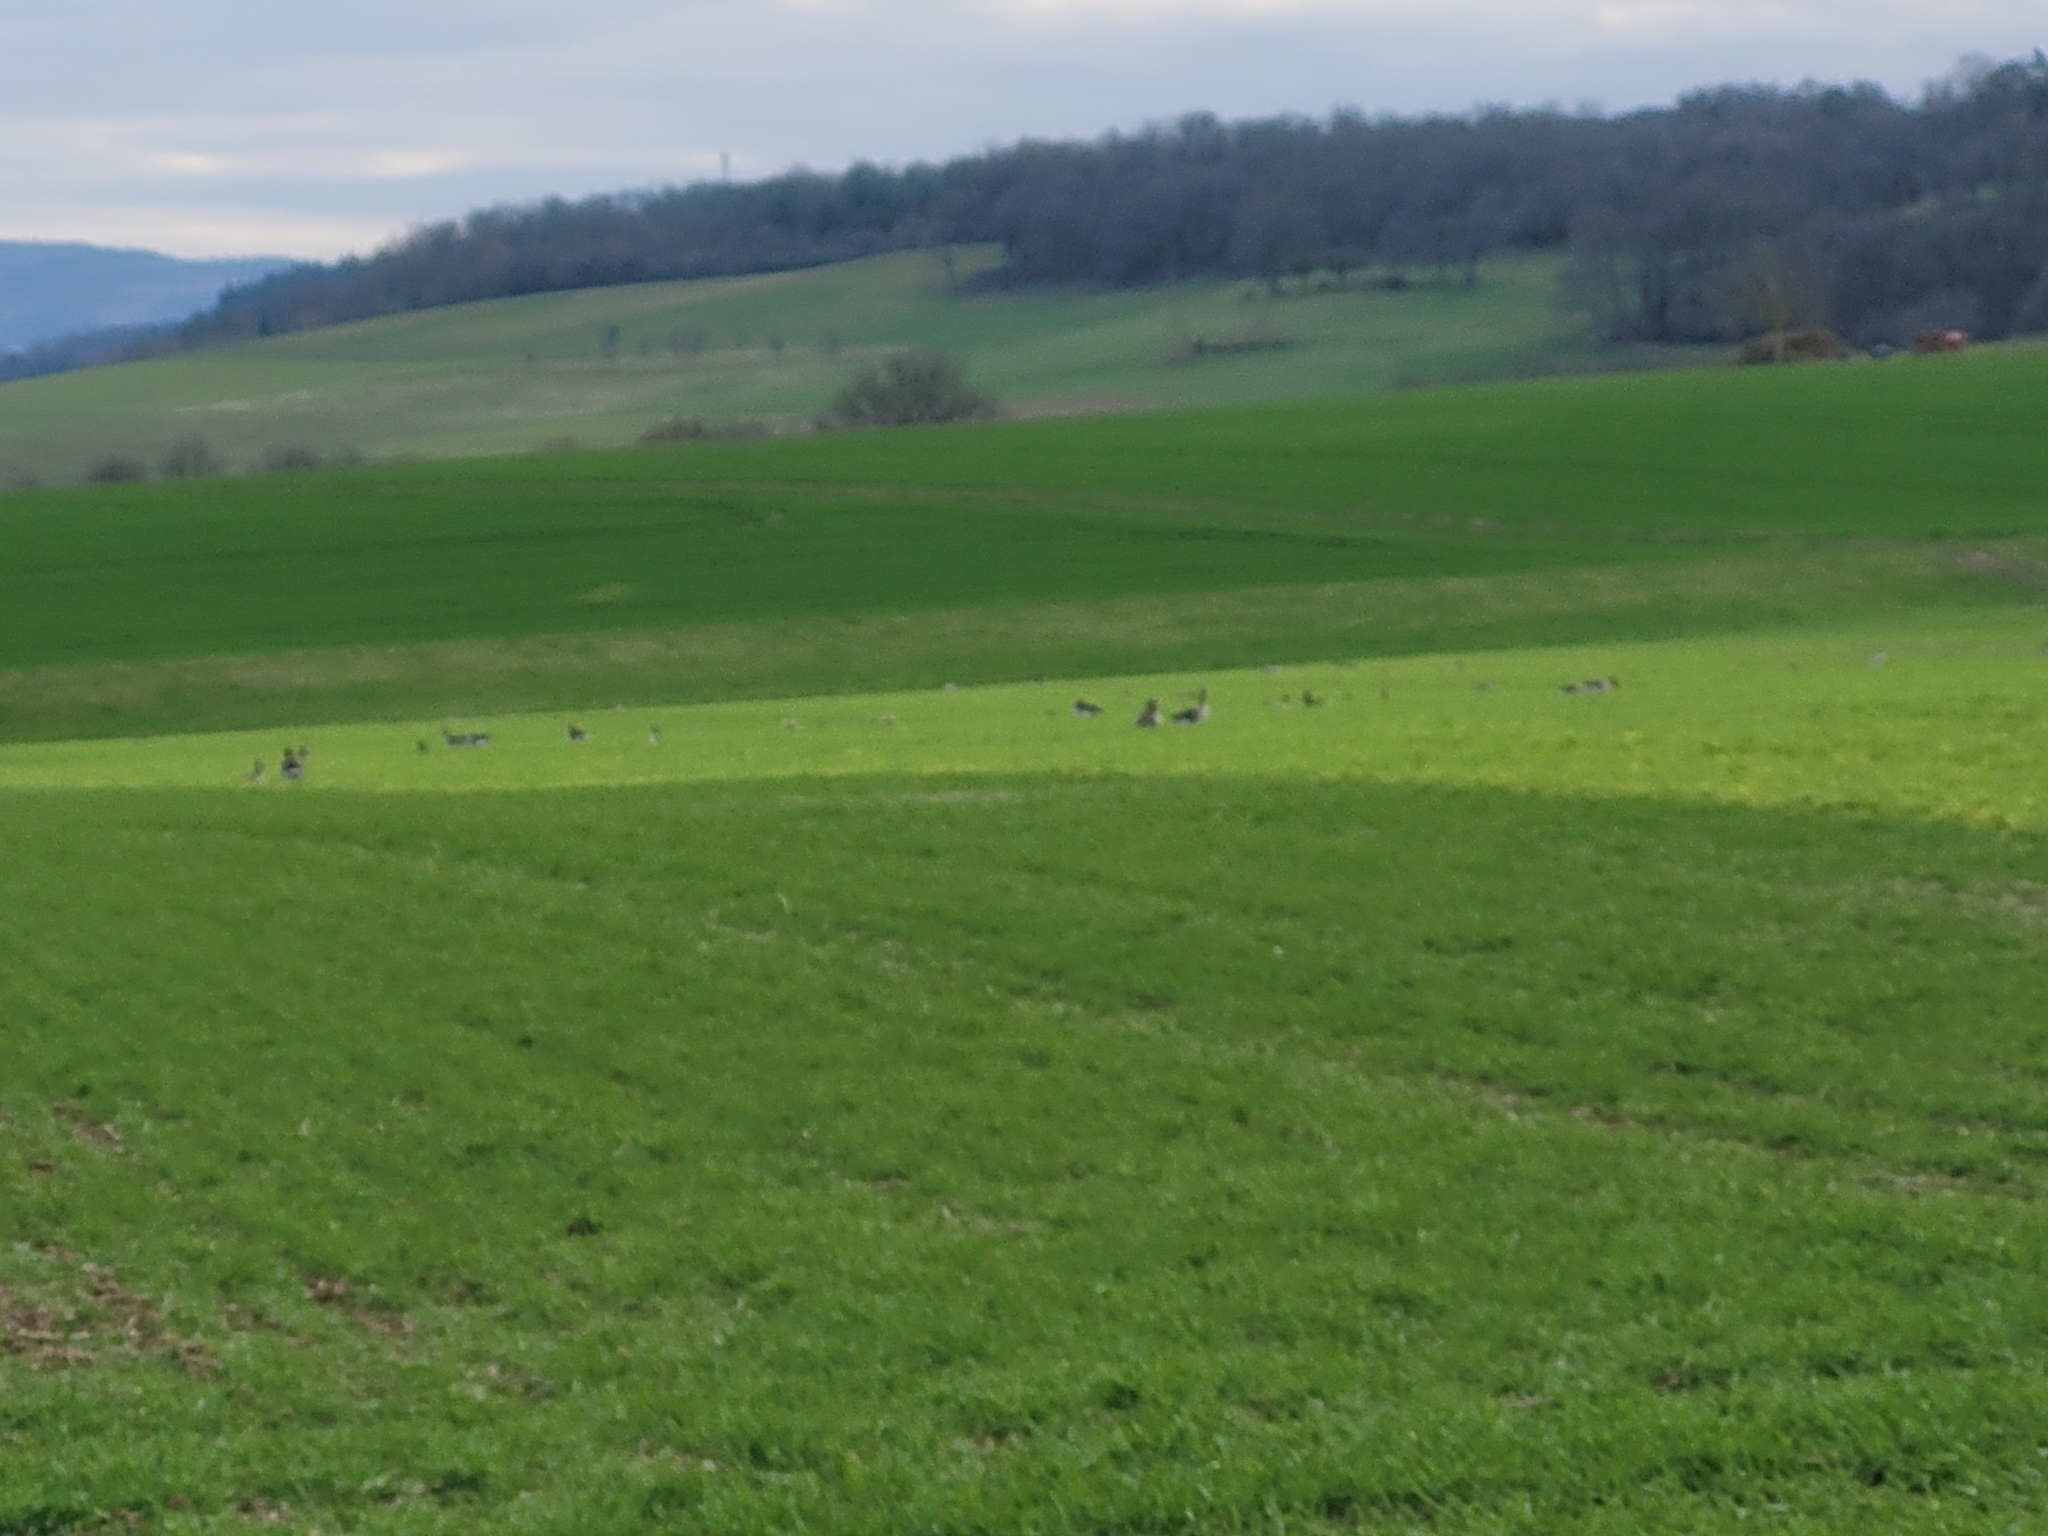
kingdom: Animalia
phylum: Chordata
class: Aves
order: Anseriformes
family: Anatidae
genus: Anser
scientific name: Anser anser
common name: Greylag goose
